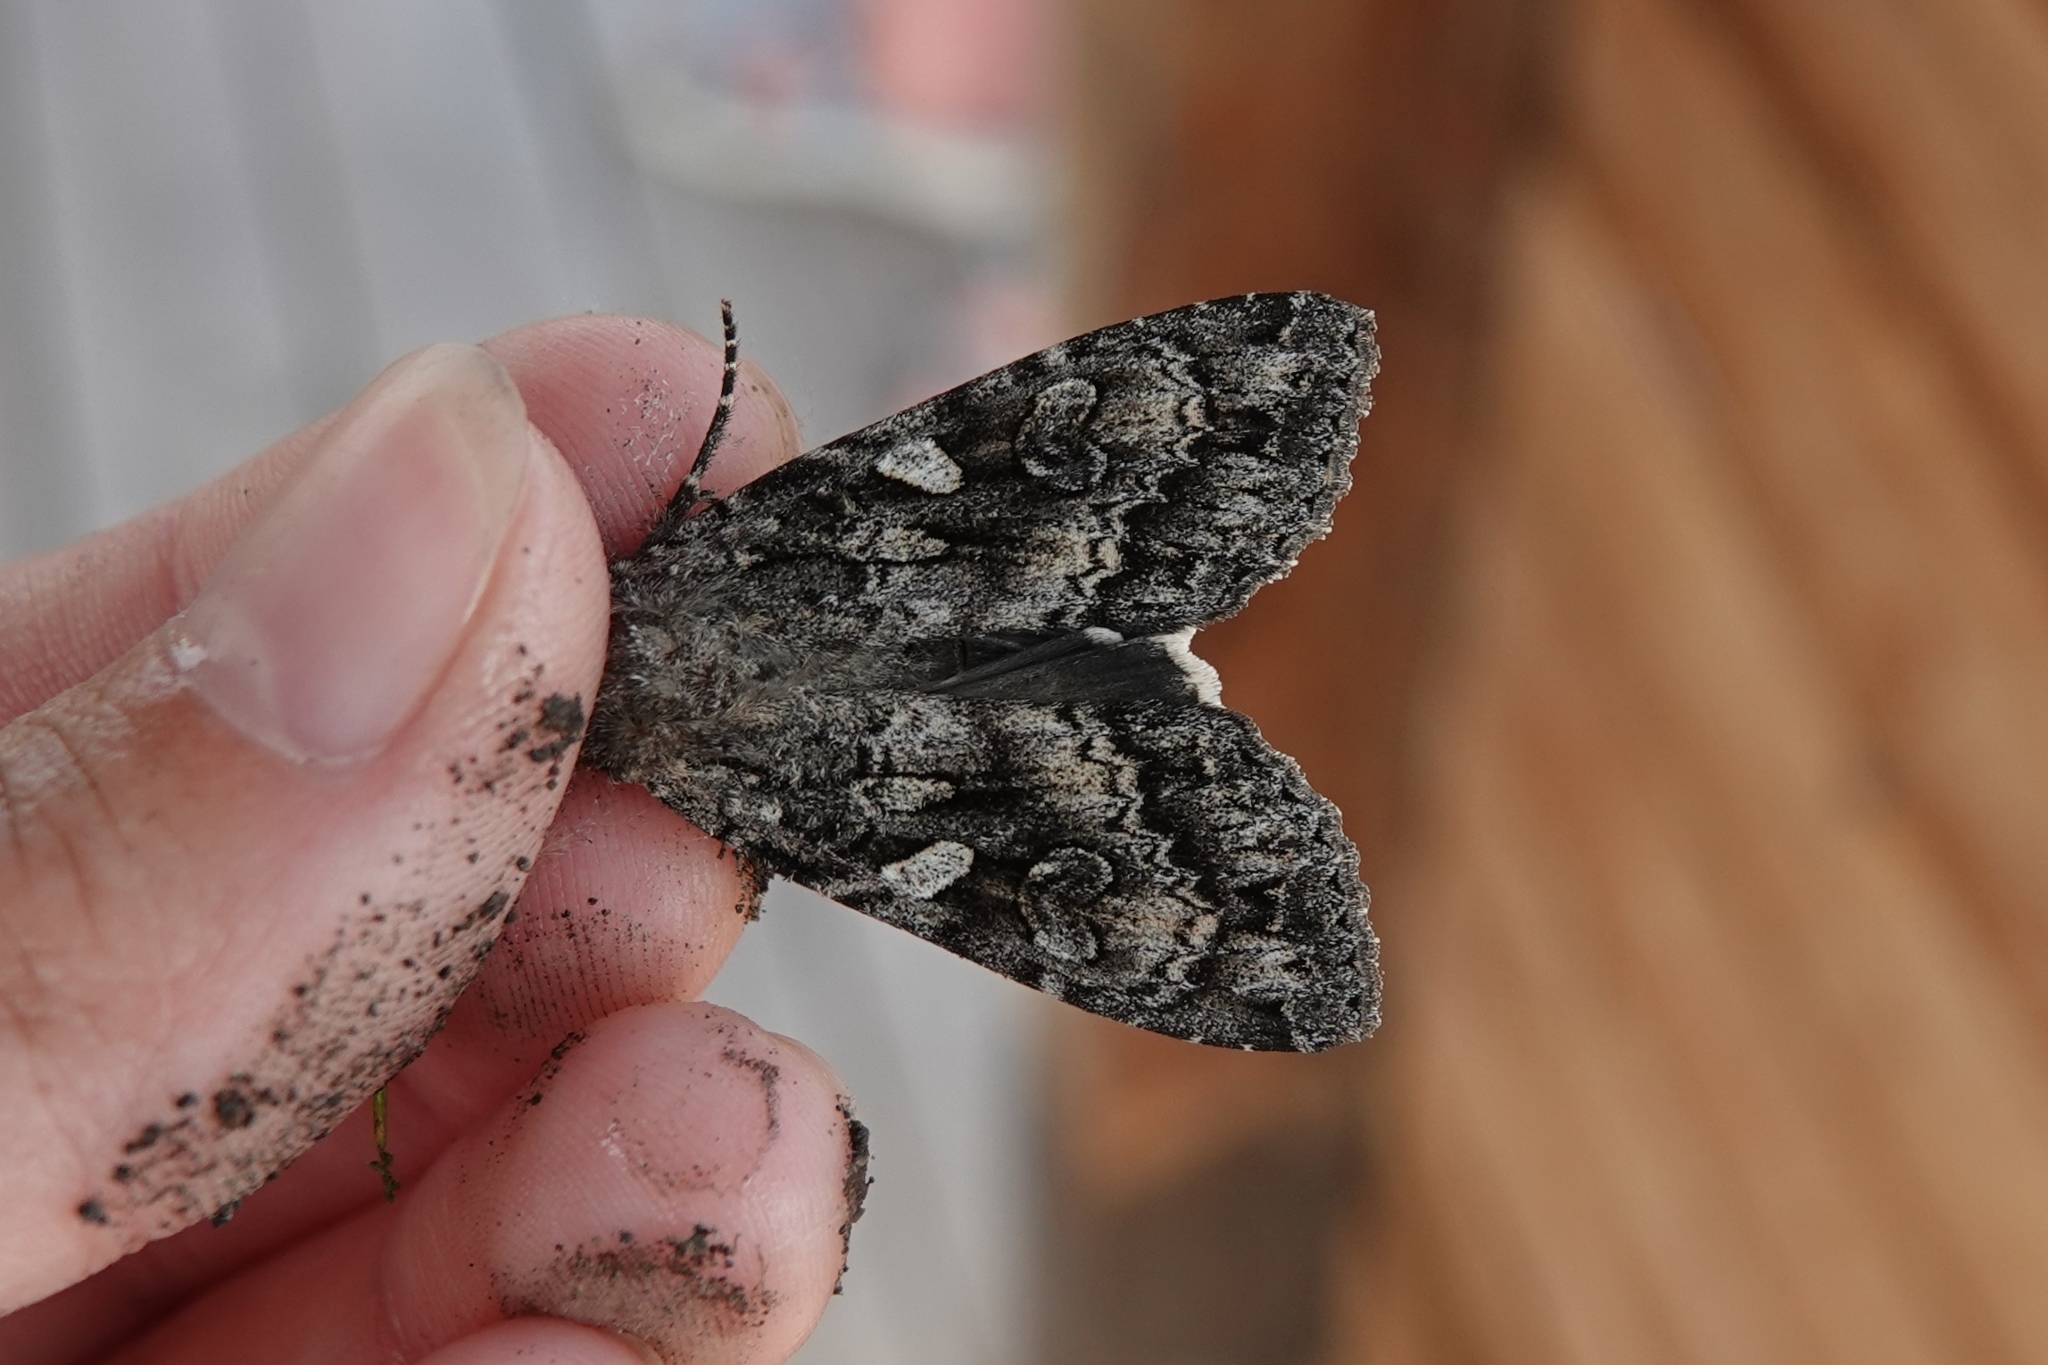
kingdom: Animalia
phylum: Arthropoda
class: Insecta
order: Lepidoptera
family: Noctuidae
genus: Eurois
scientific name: Eurois occulta
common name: Great brocade
